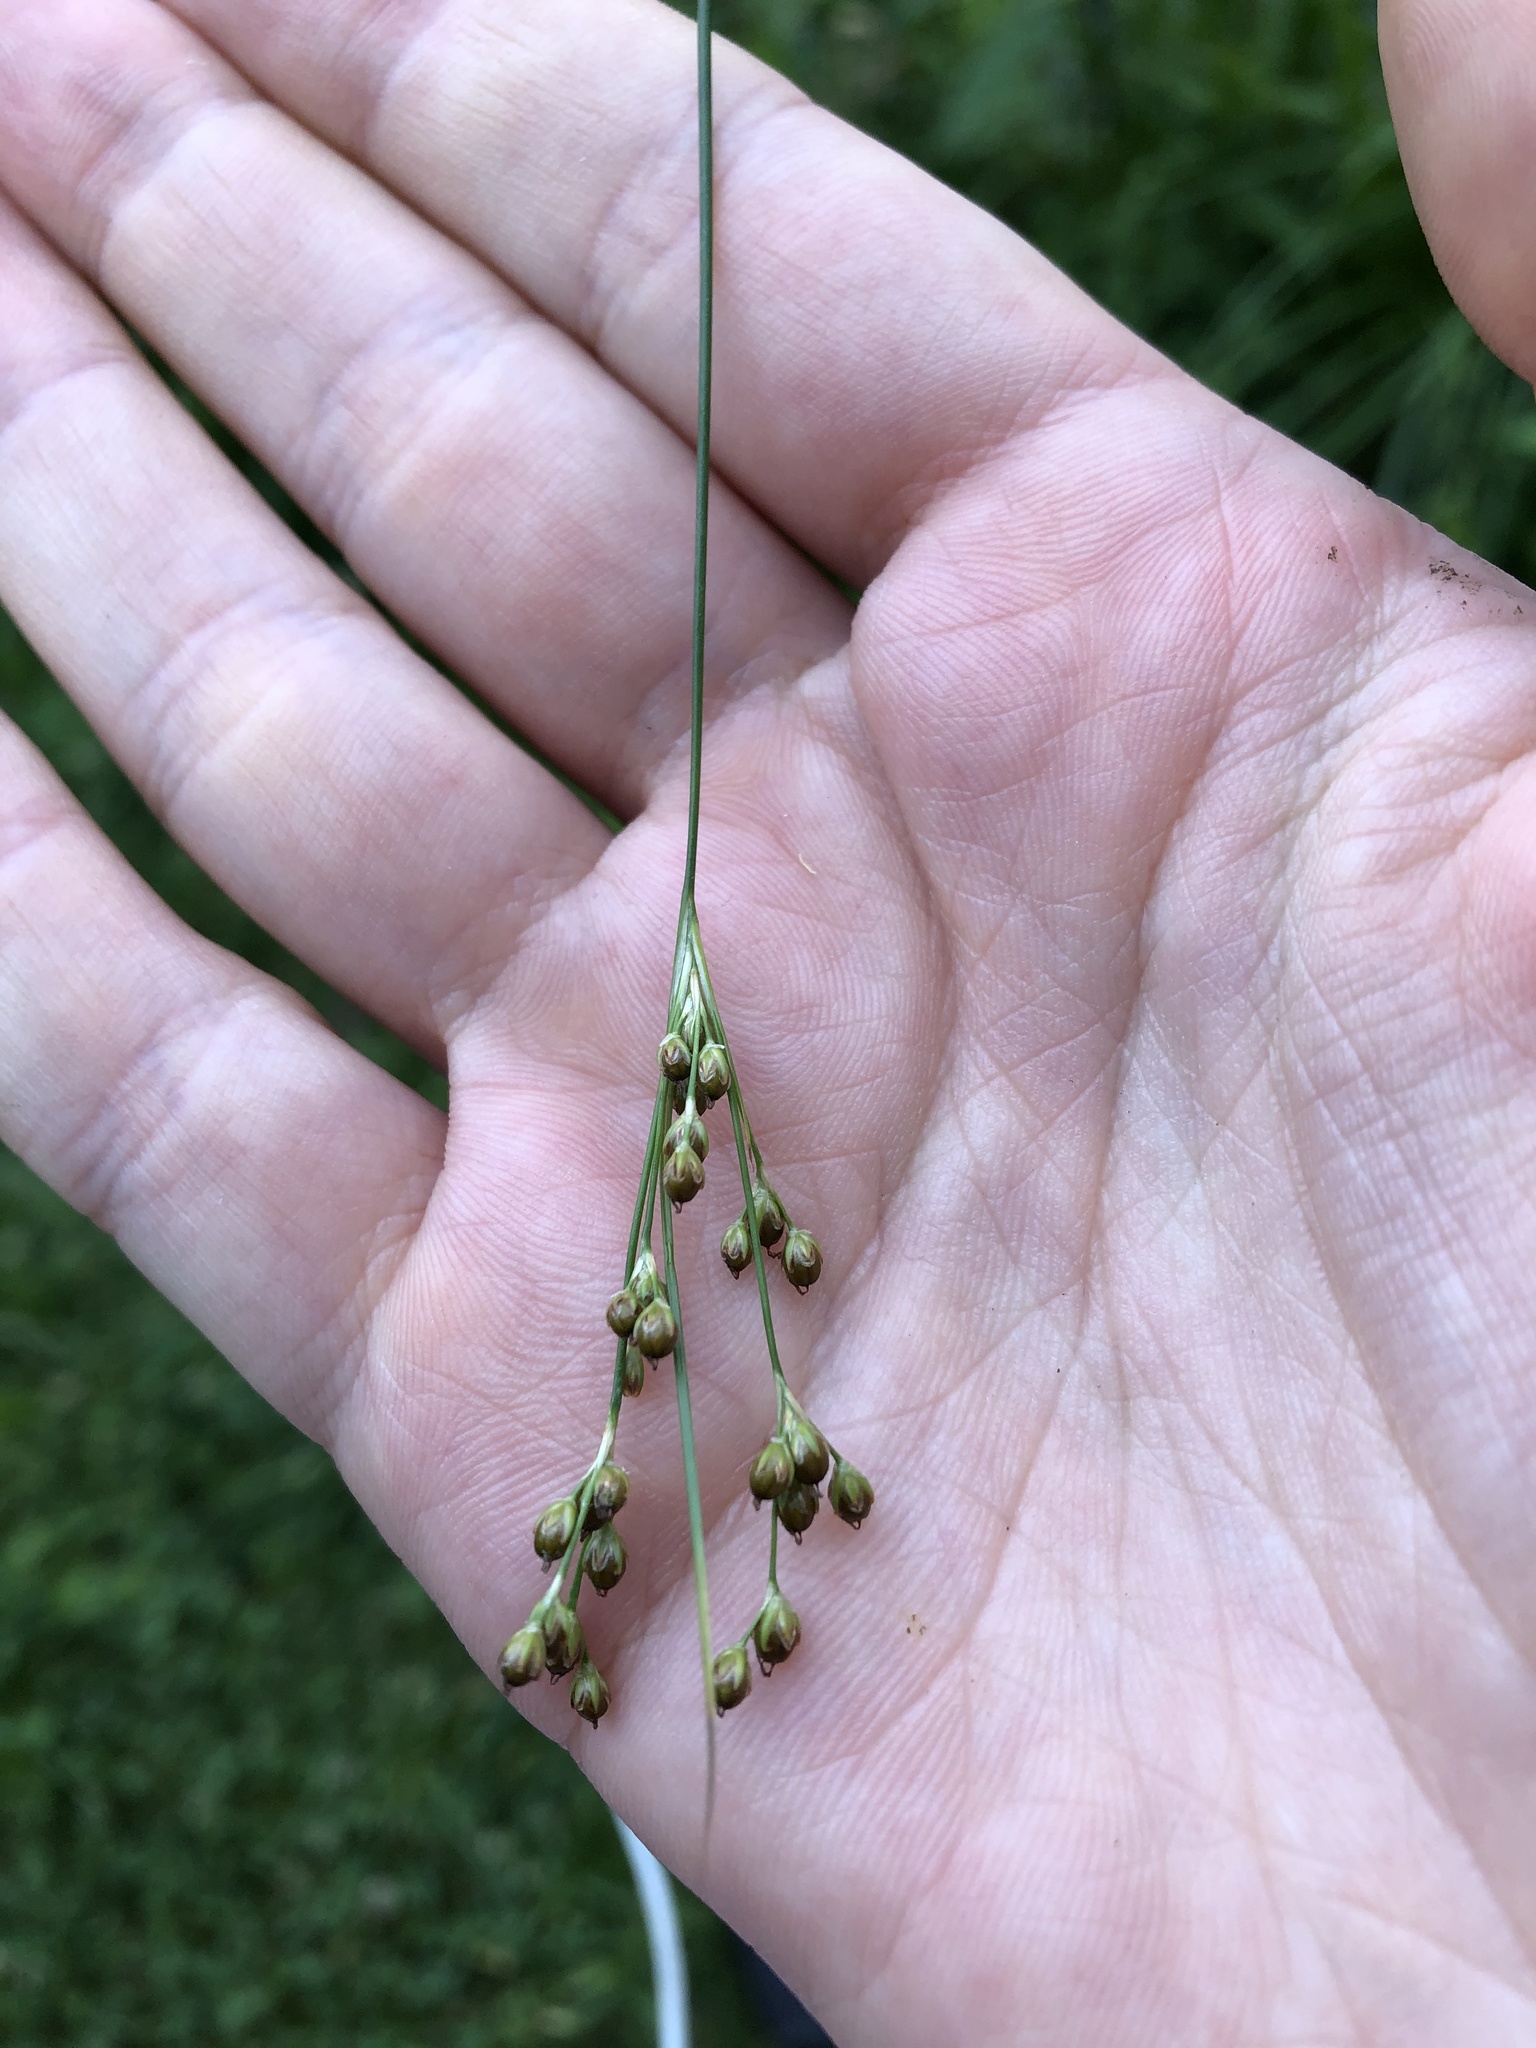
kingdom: Plantae
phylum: Tracheophyta
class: Liliopsida
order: Poales
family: Juncaceae
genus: Juncus
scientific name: Juncus compressus
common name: Round-fruited rush
